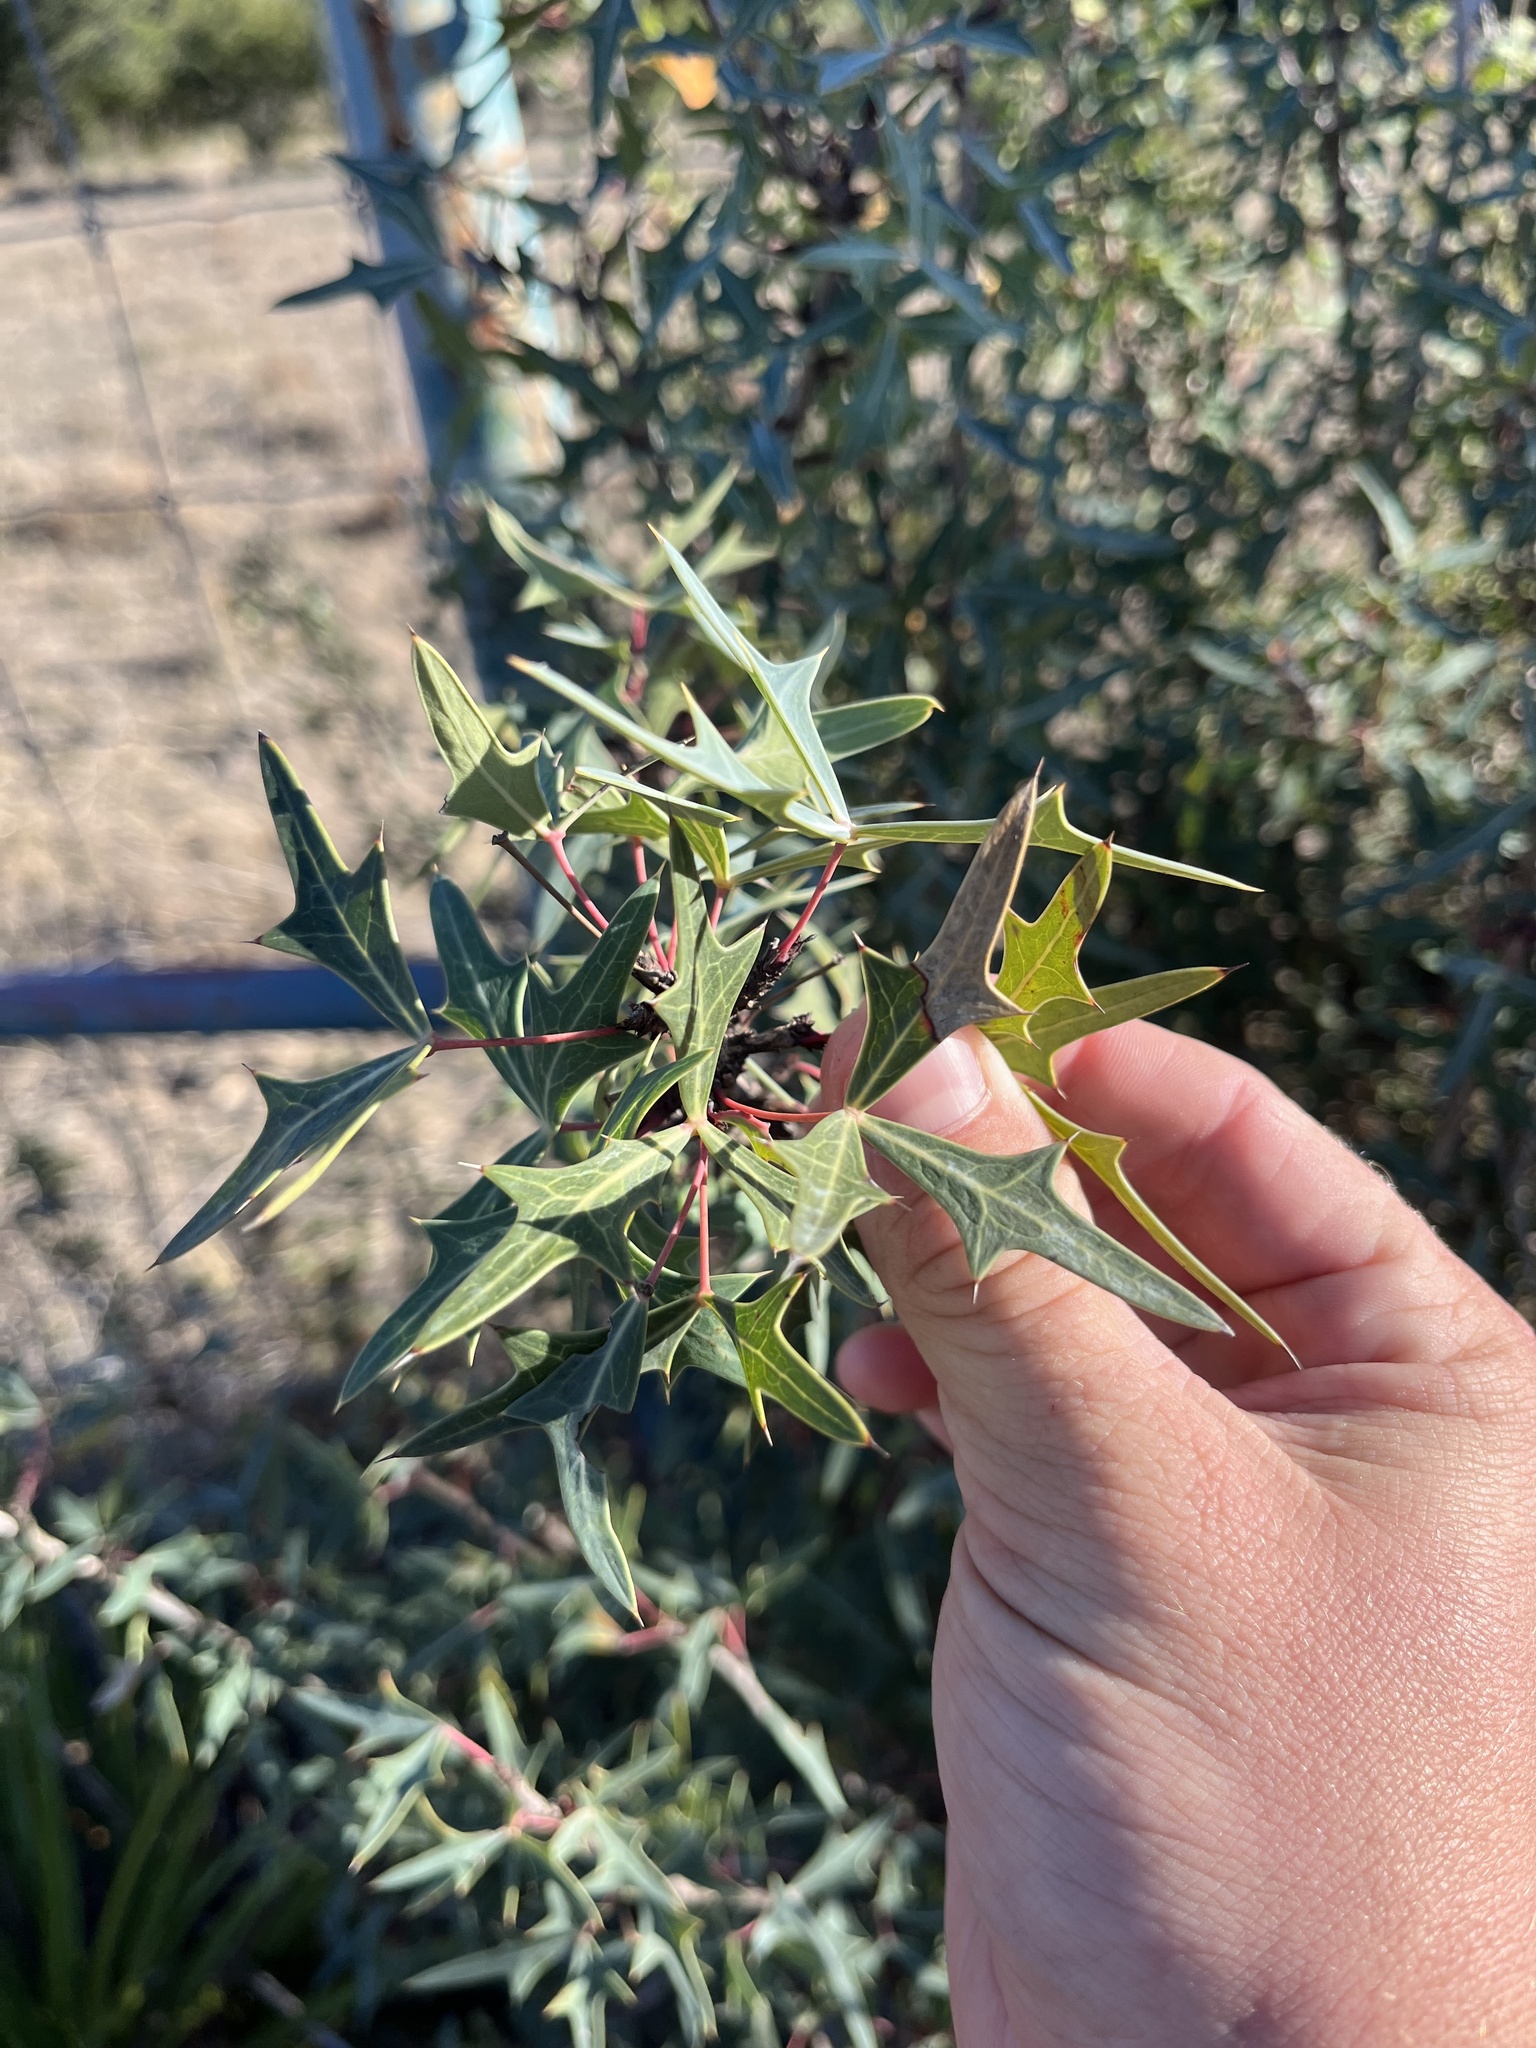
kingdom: Plantae
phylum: Tracheophyta
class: Magnoliopsida
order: Ranunculales
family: Berberidaceae
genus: Alloberberis
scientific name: Alloberberis trifoliolata
